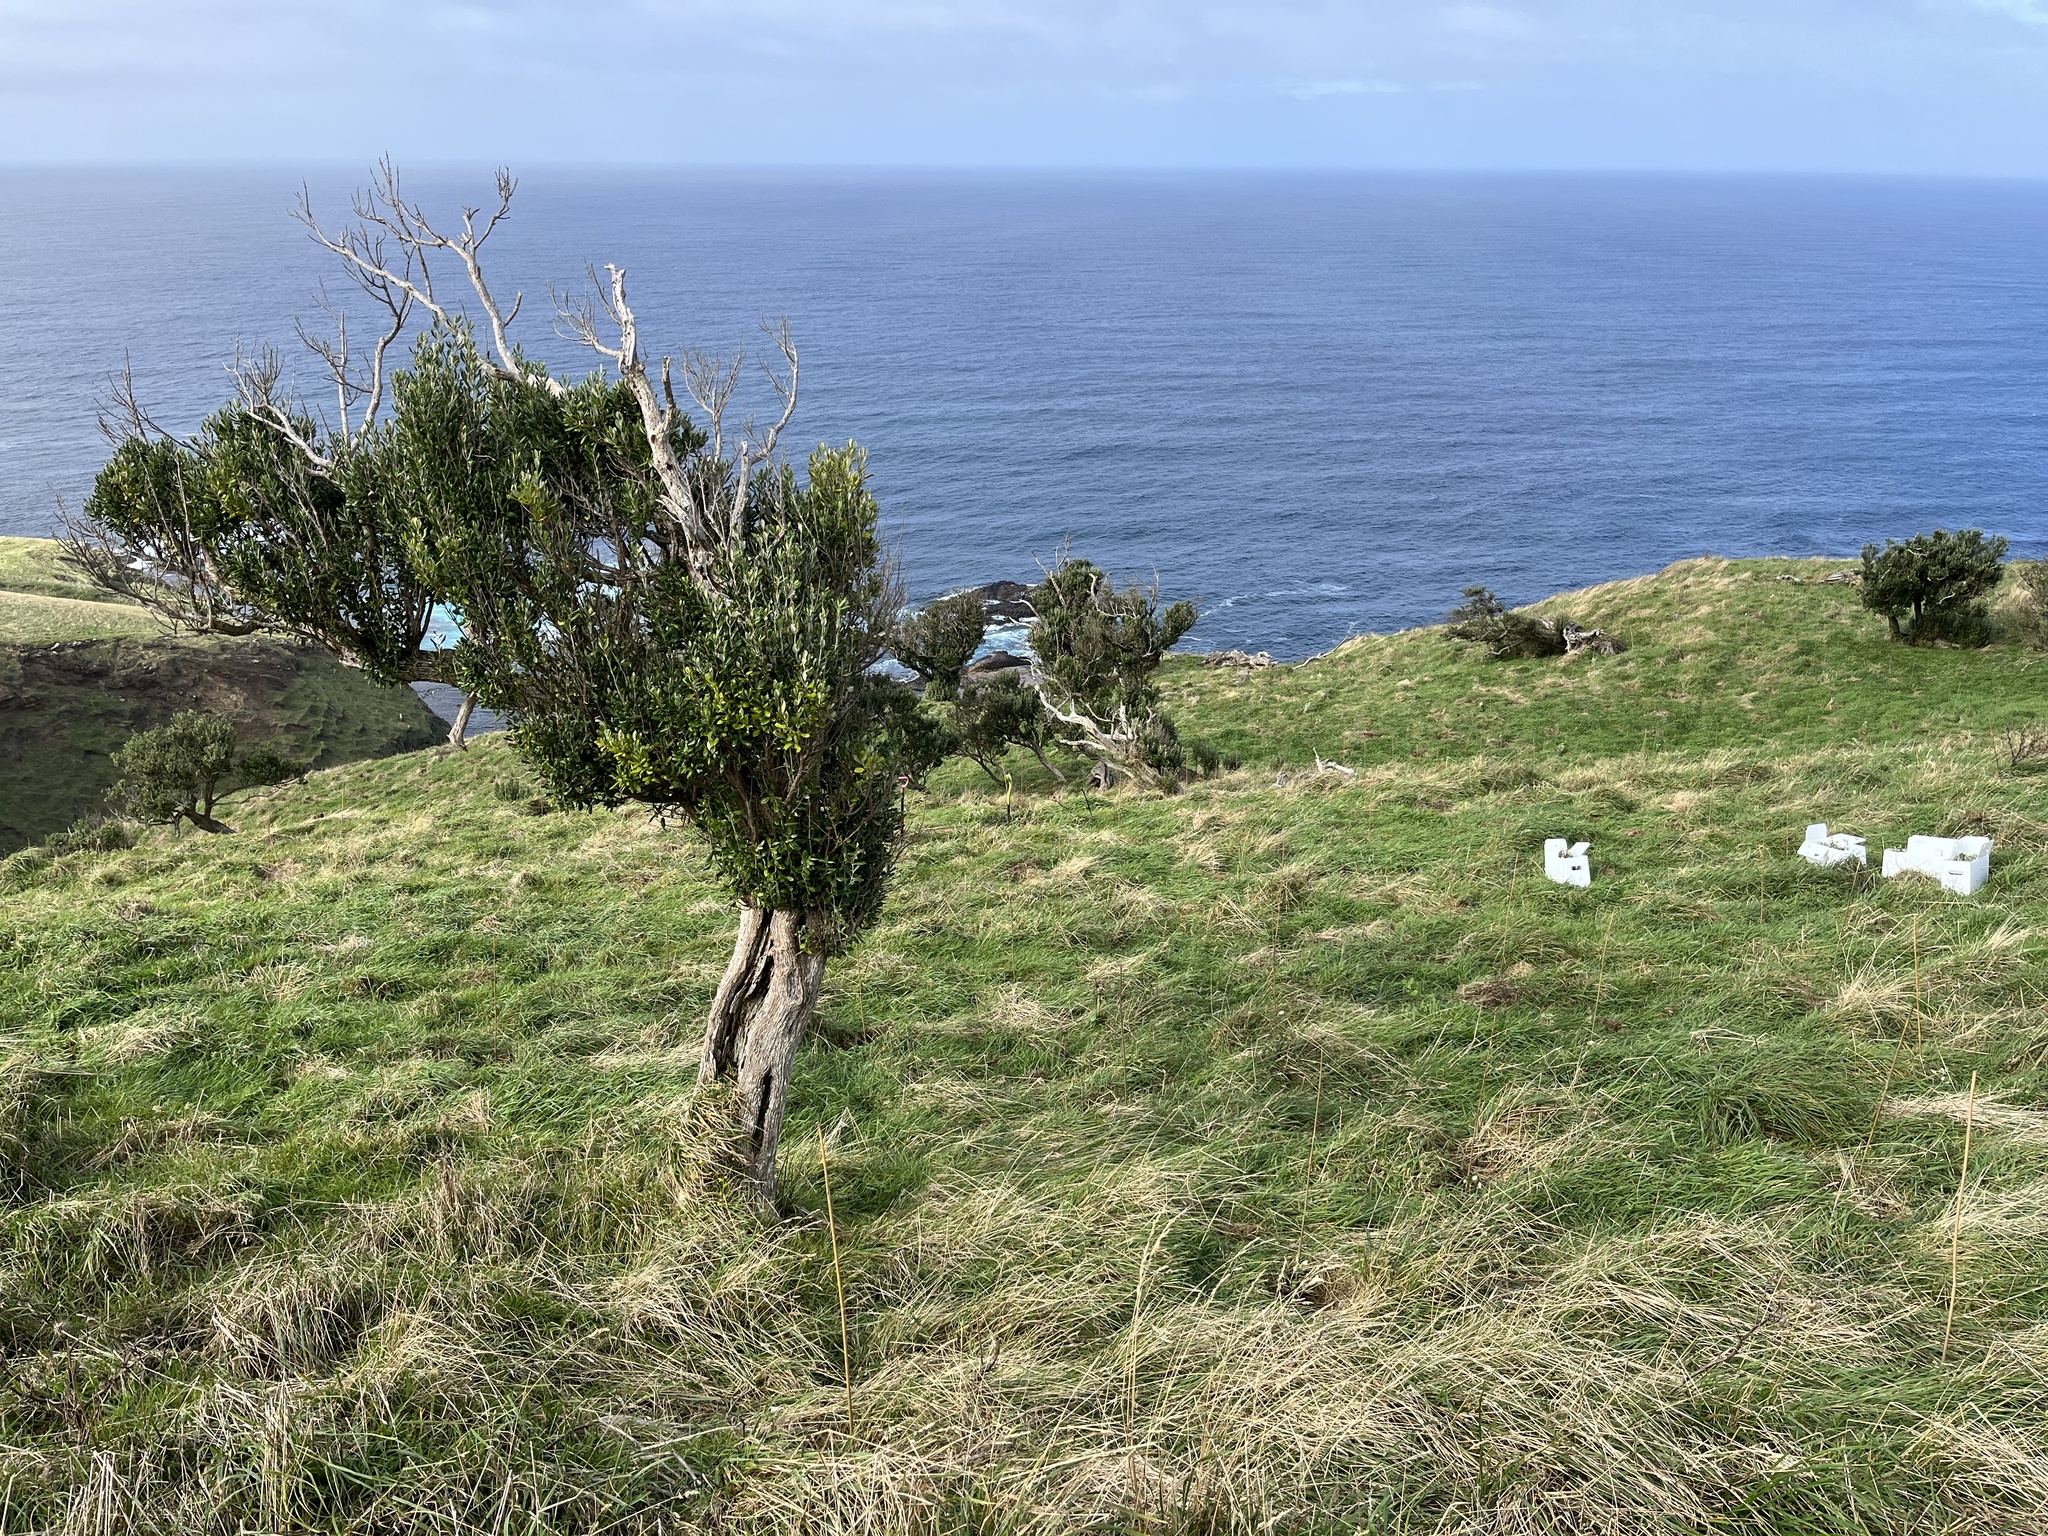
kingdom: Plantae
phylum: Tracheophyta
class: Magnoliopsida
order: Asterales
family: Asteraceae
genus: Olearia
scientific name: Olearia traversiorum
